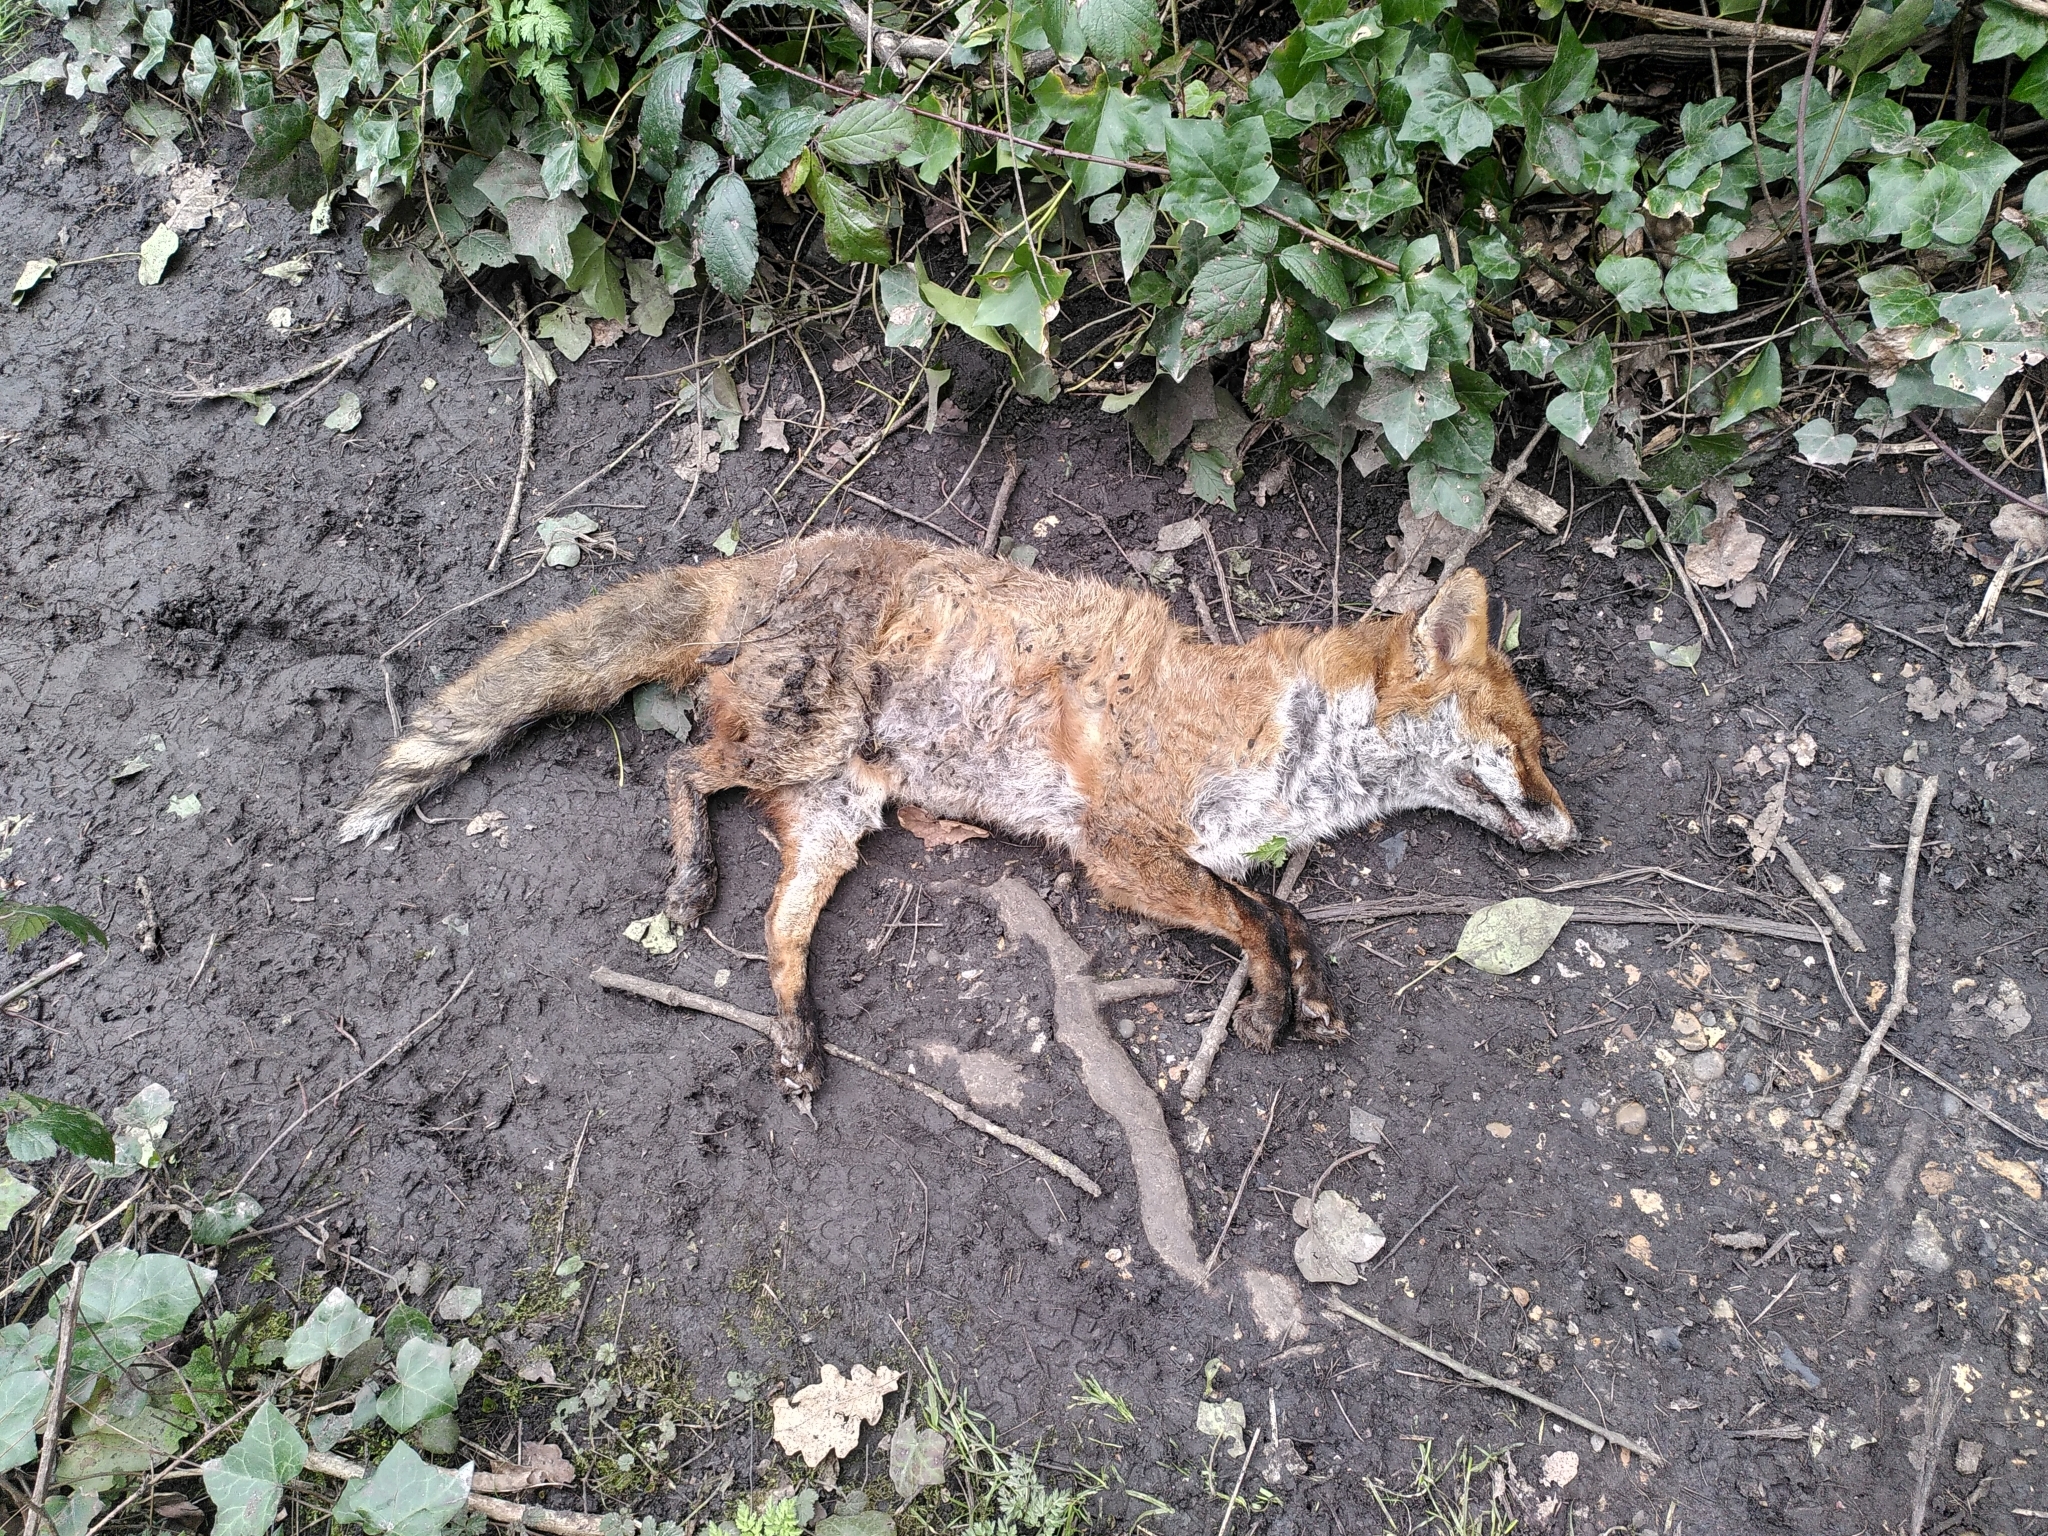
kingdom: Animalia
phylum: Chordata
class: Mammalia
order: Carnivora
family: Canidae
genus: Vulpes
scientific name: Vulpes vulpes
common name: Red fox
